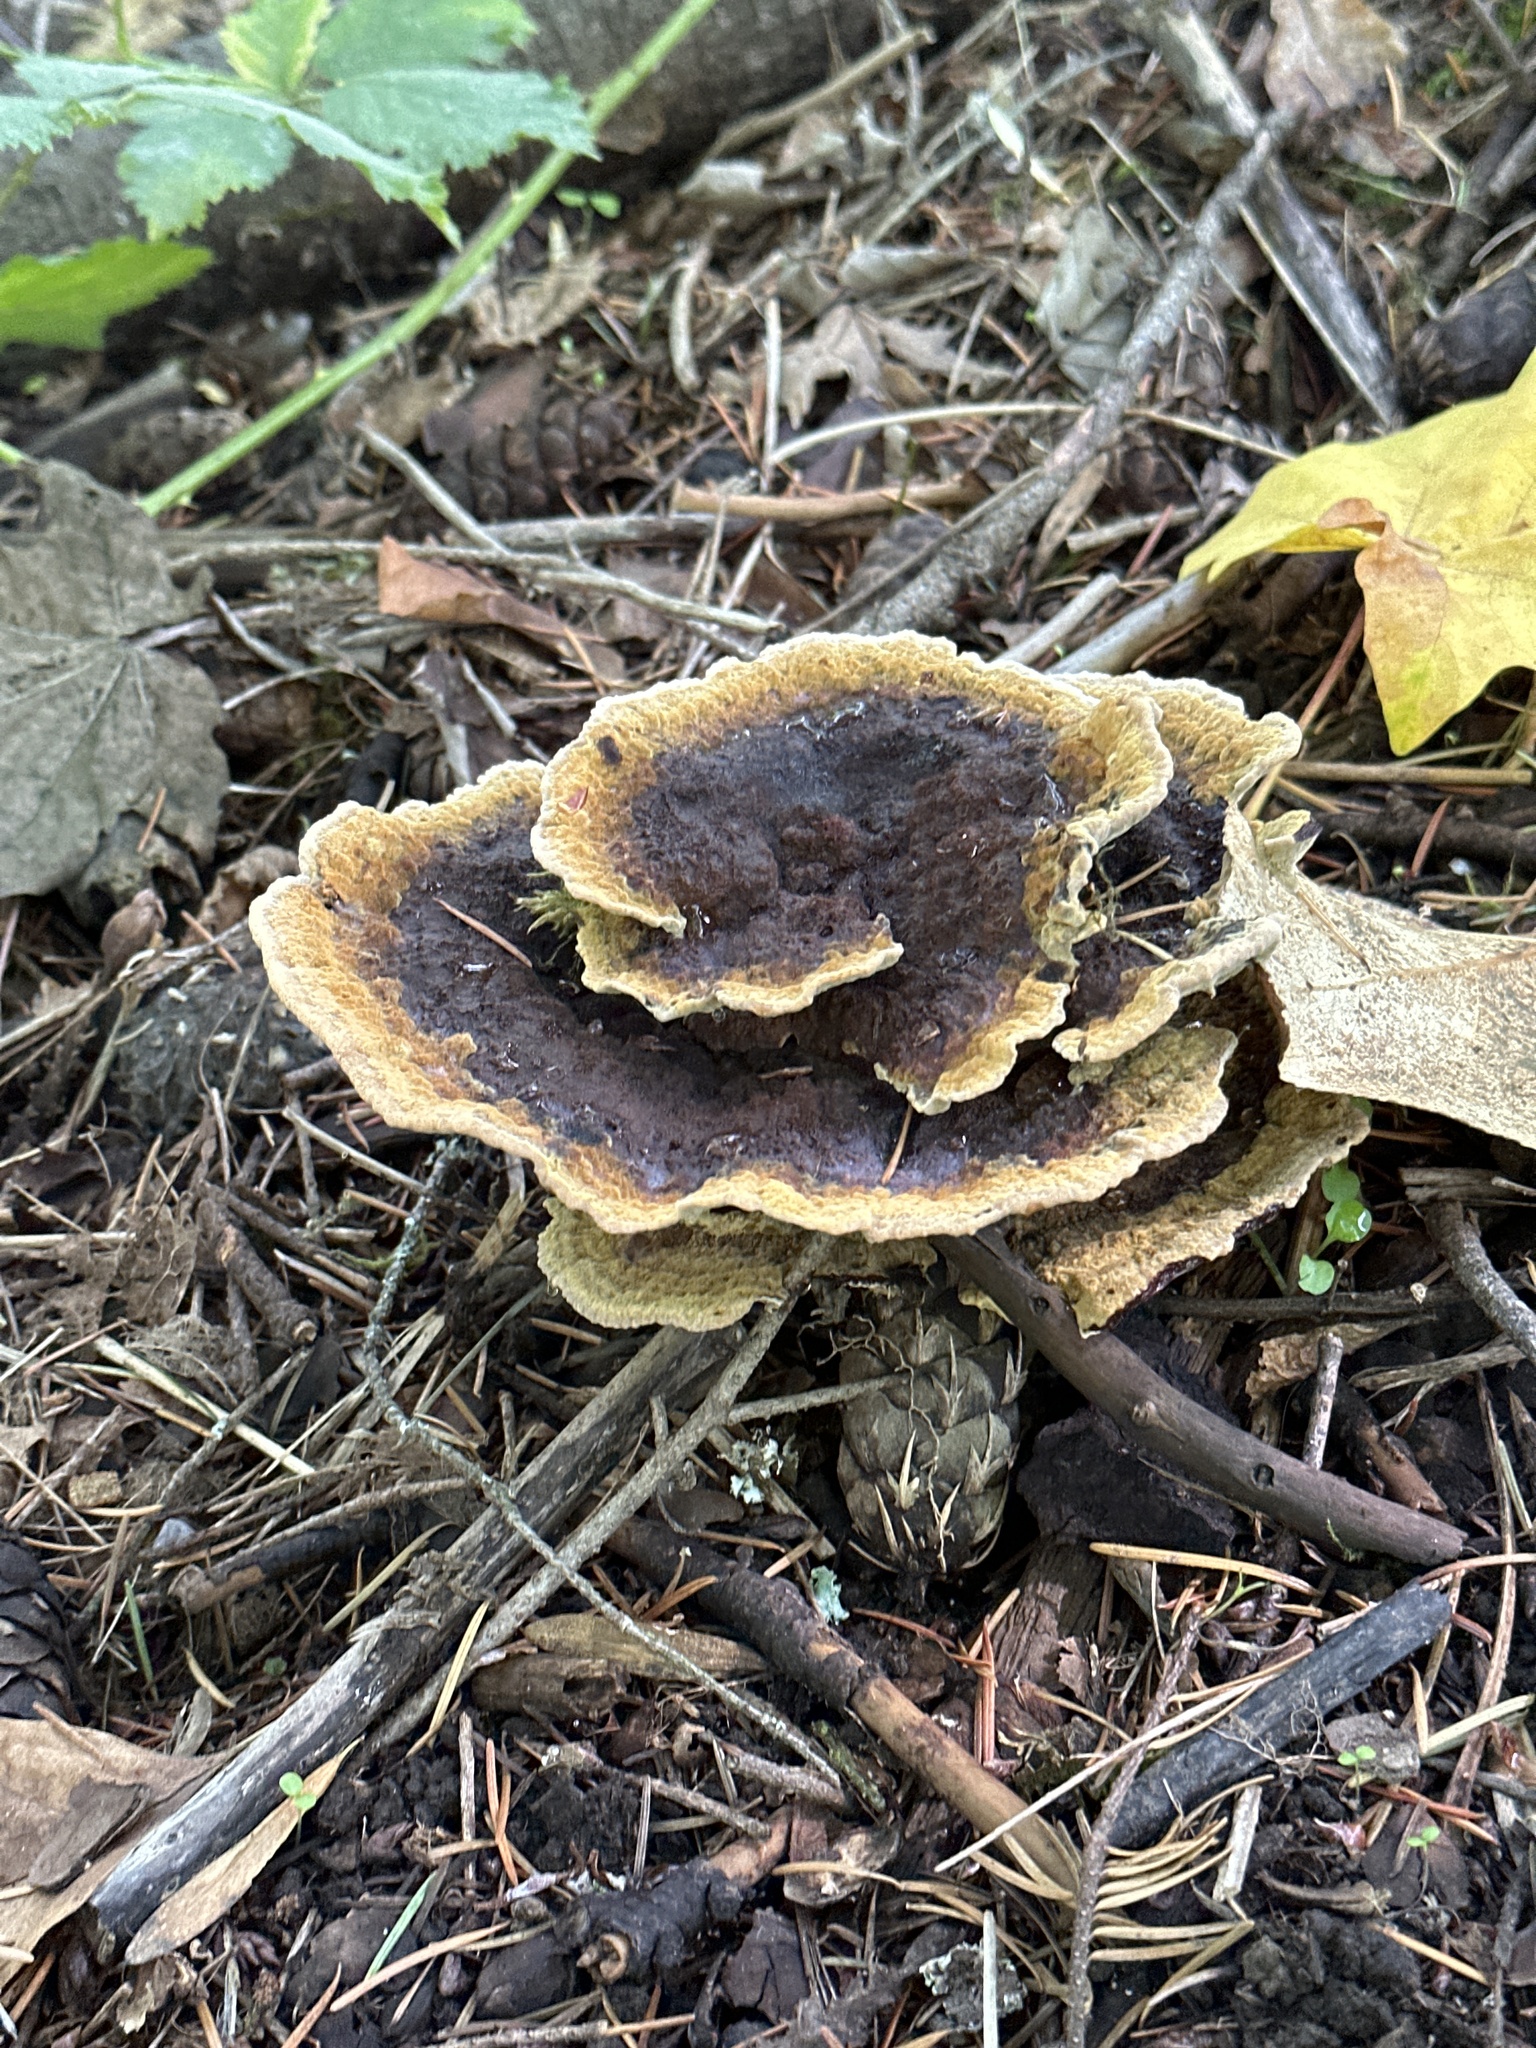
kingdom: Fungi
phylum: Basidiomycota
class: Agaricomycetes
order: Polyporales
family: Laetiporaceae
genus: Phaeolus
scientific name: Phaeolus schweinitzii
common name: Dyer's mazegill
